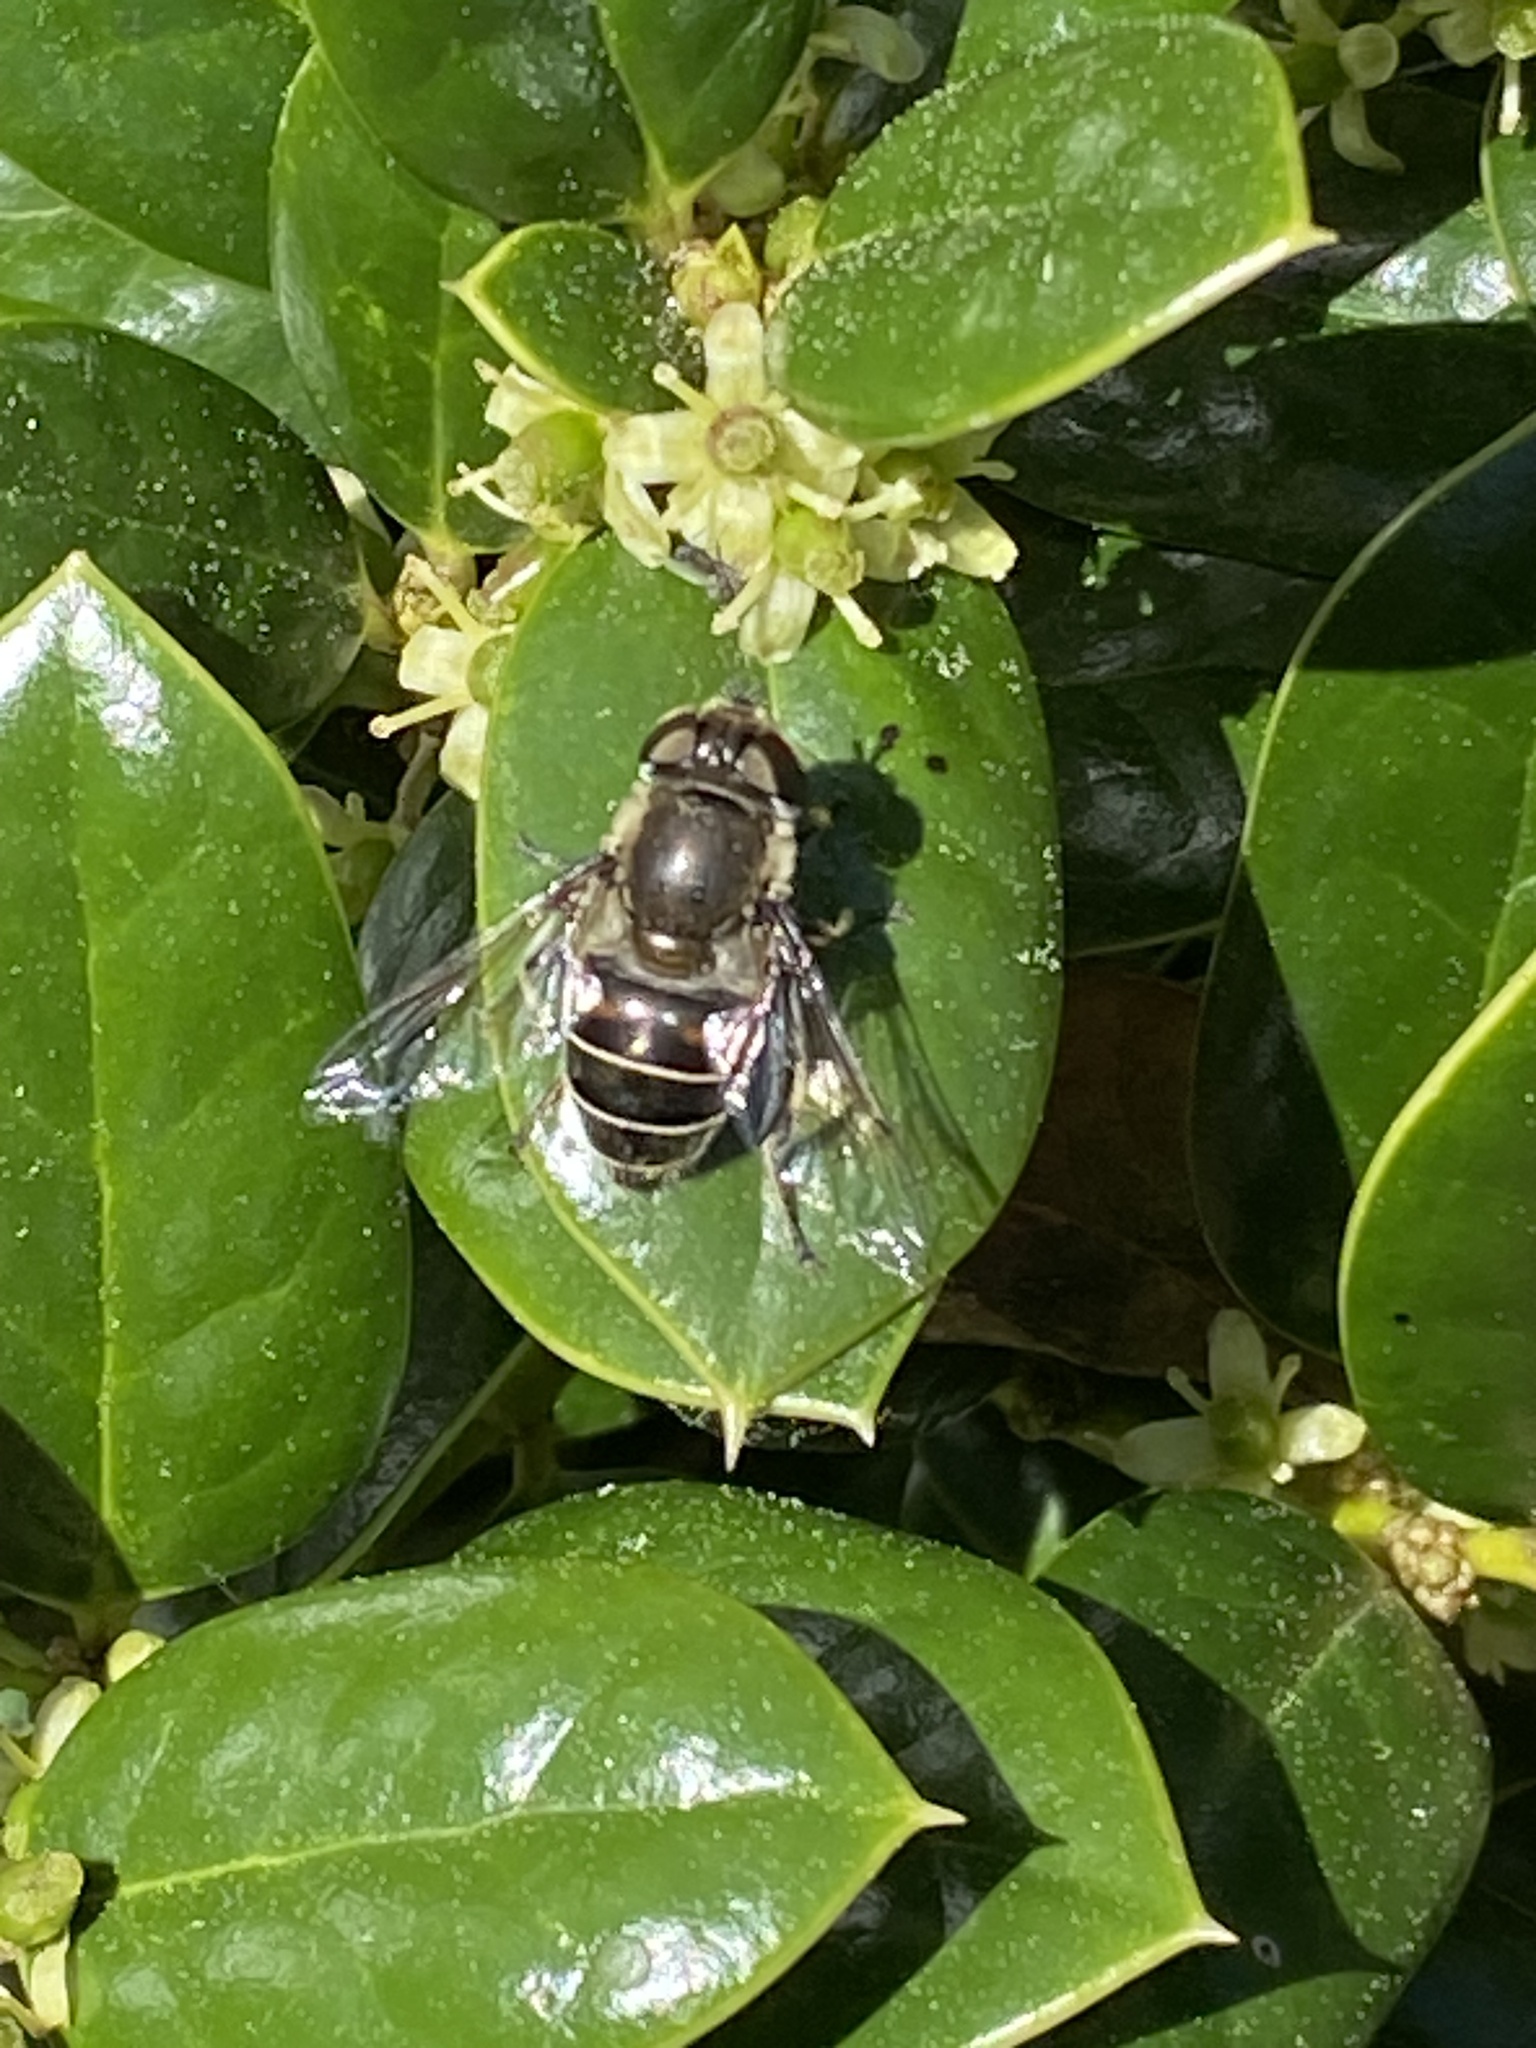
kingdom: Animalia
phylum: Arthropoda
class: Insecta
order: Diptera
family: Syrphidae
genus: Eristalis
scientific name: Eristalis dimidiata
